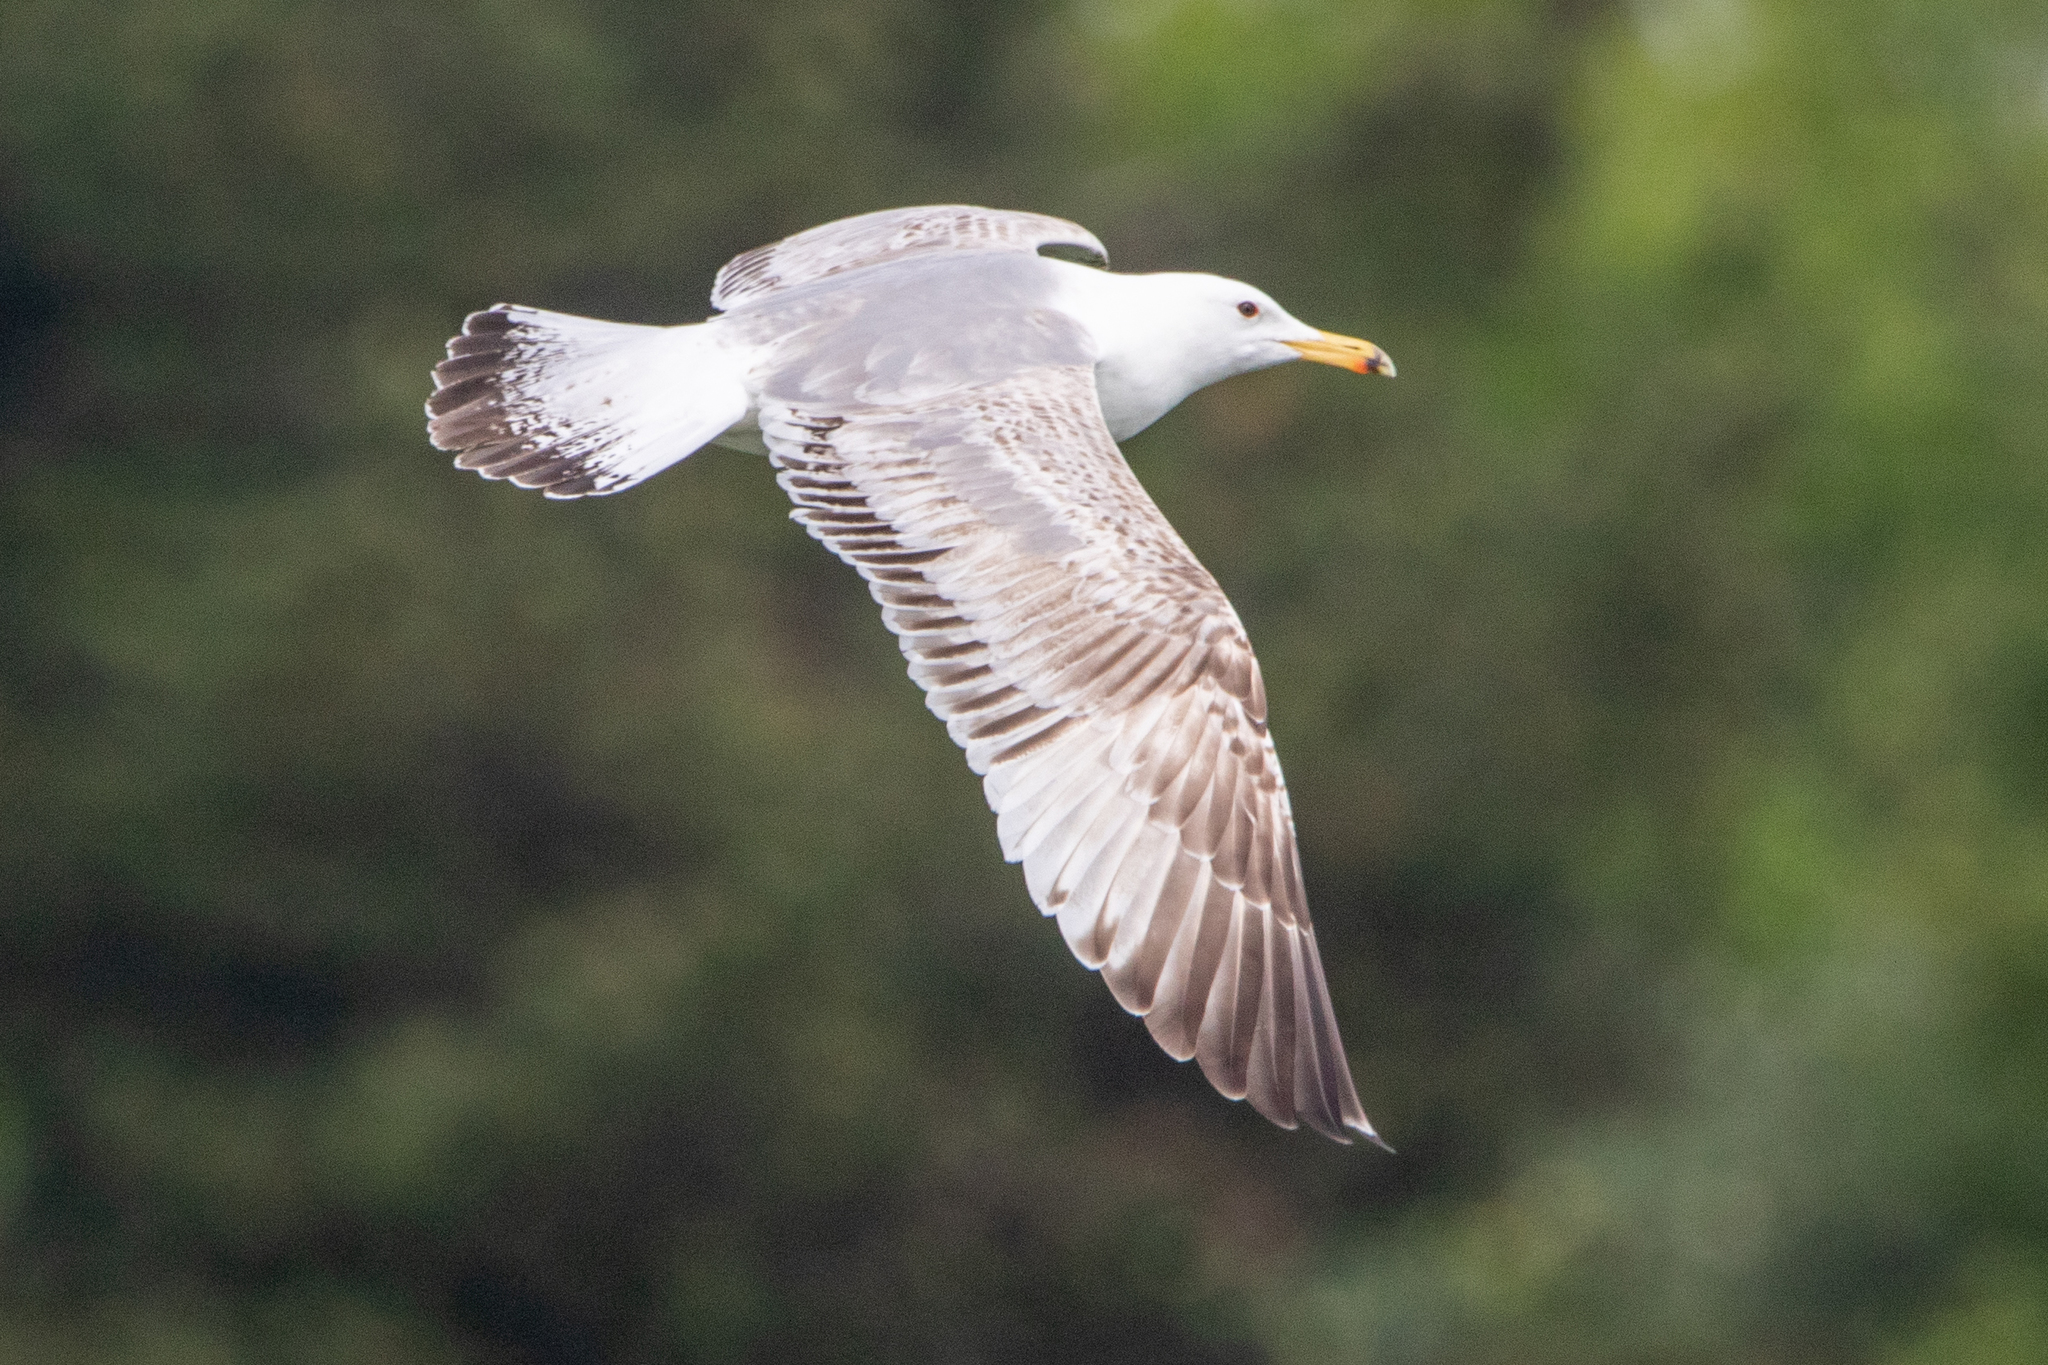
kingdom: Animalia
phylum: Chordata
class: Aves
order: Charadriiformes
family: Laridae
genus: Larus
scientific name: Larus cachinnans
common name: Caspian gull
